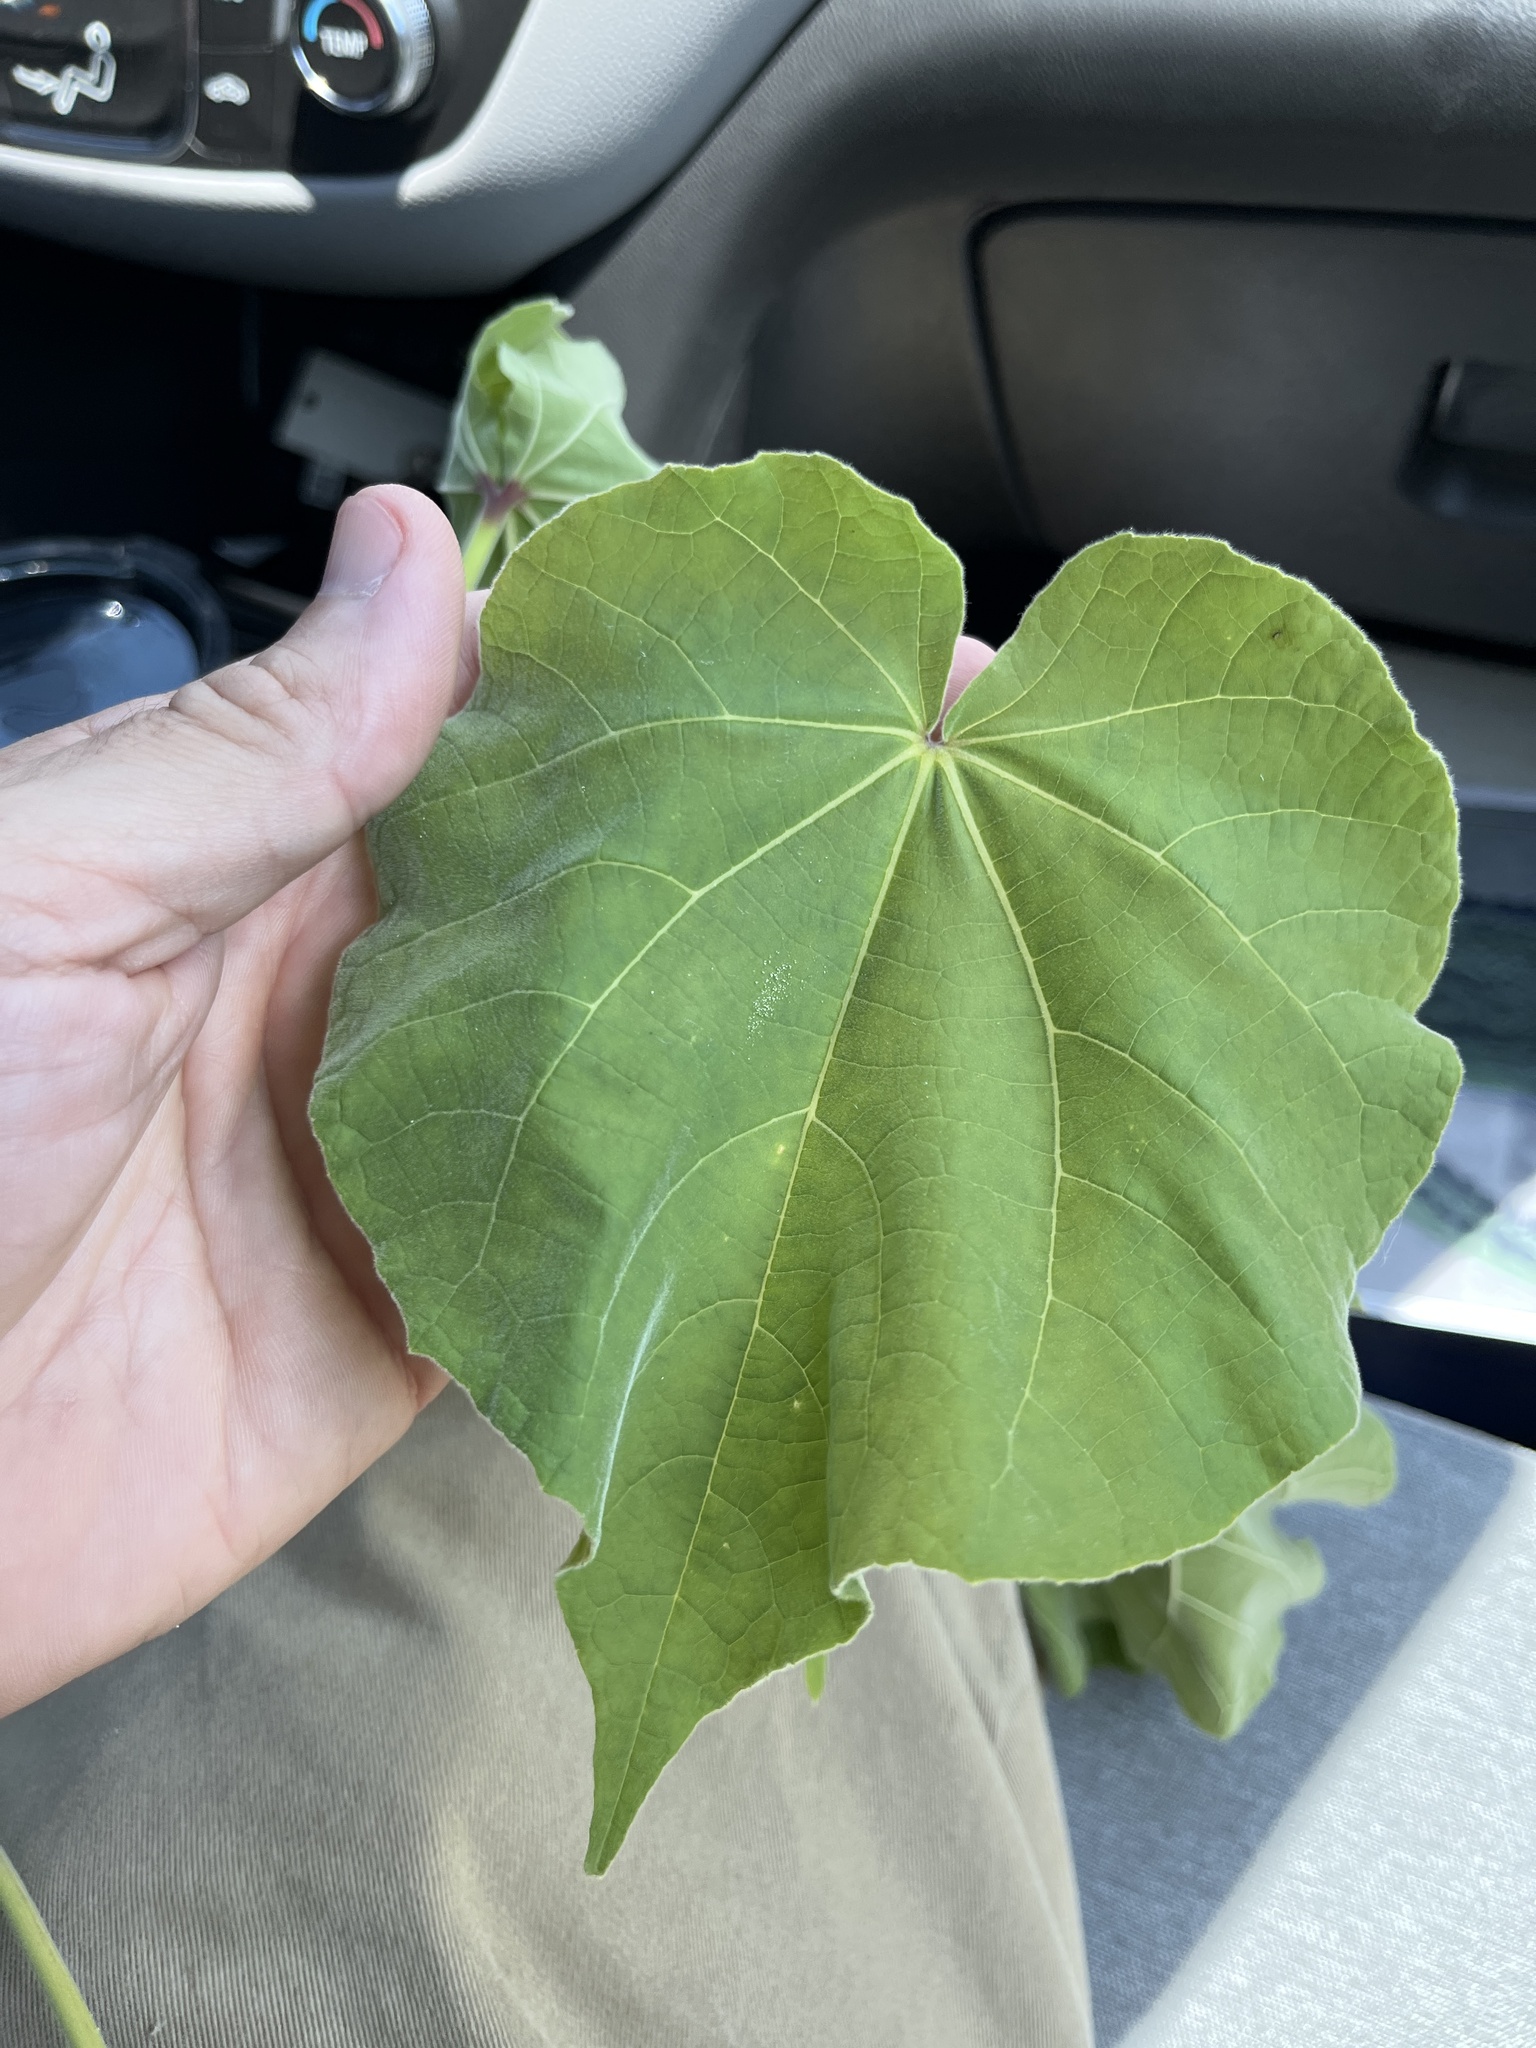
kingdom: Plantae
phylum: Tracheophyta
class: Magnoliopsida
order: Malvales
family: Malvaceae
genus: Abutilon
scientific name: Abutilon theophrasti
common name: Velvetleaf
